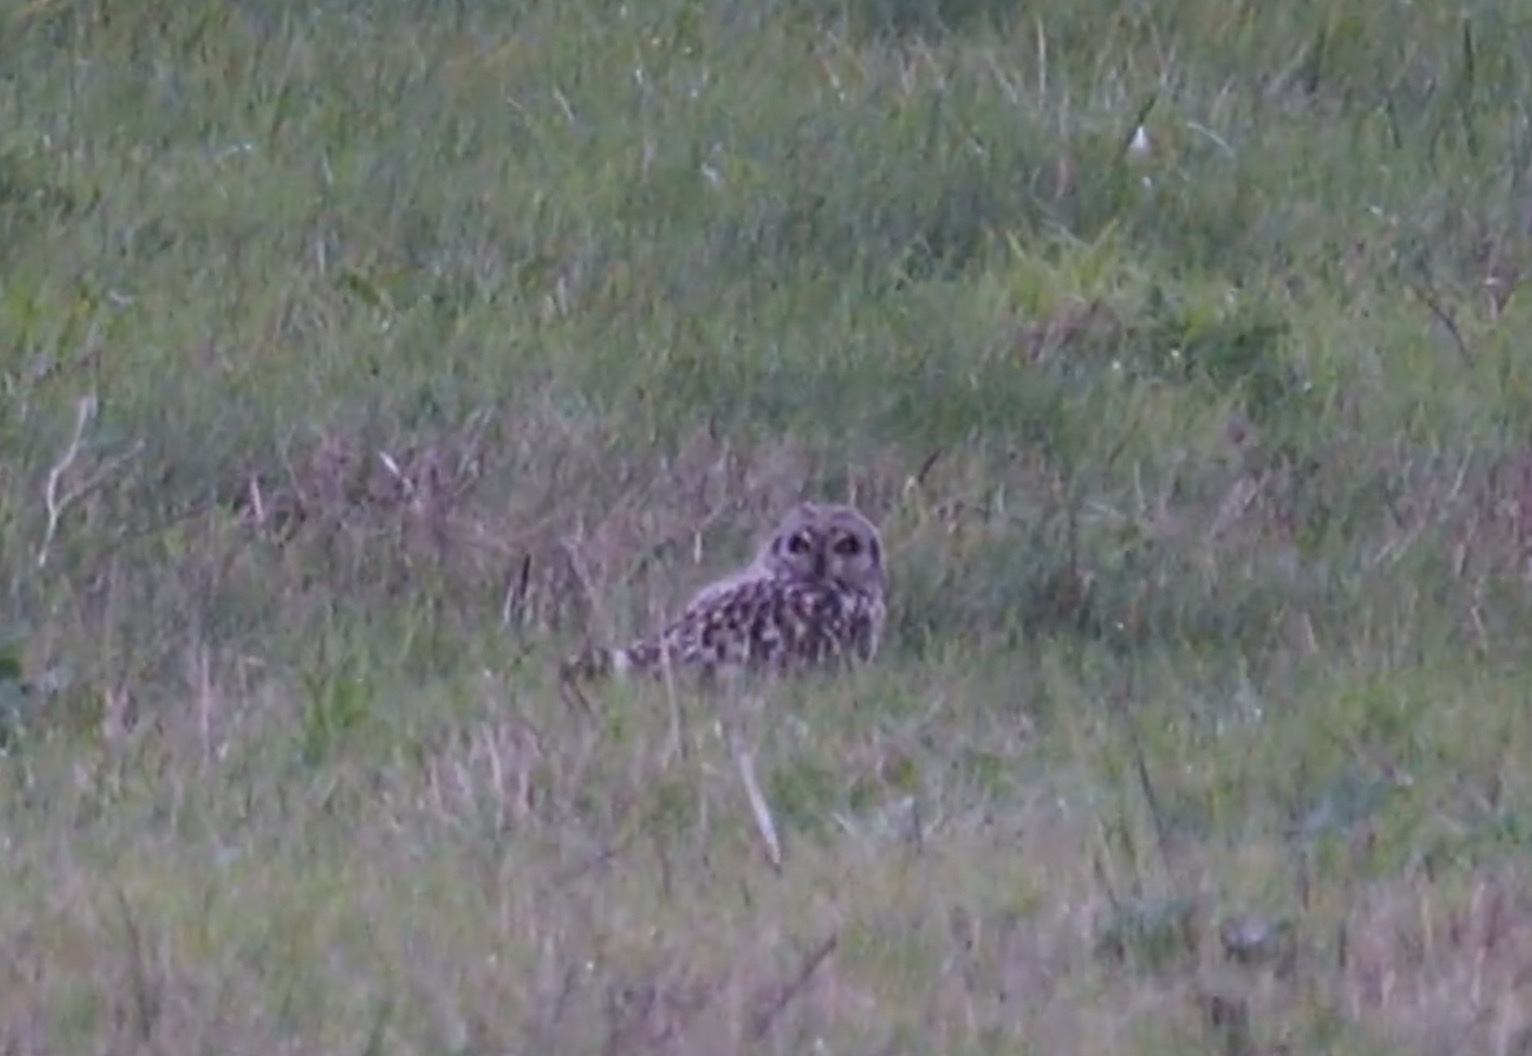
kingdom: Animalia
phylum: Chordata
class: Aves
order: Strigiformes
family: Strigidae
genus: Asio
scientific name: Asio flammeus
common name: Short-eared owl
